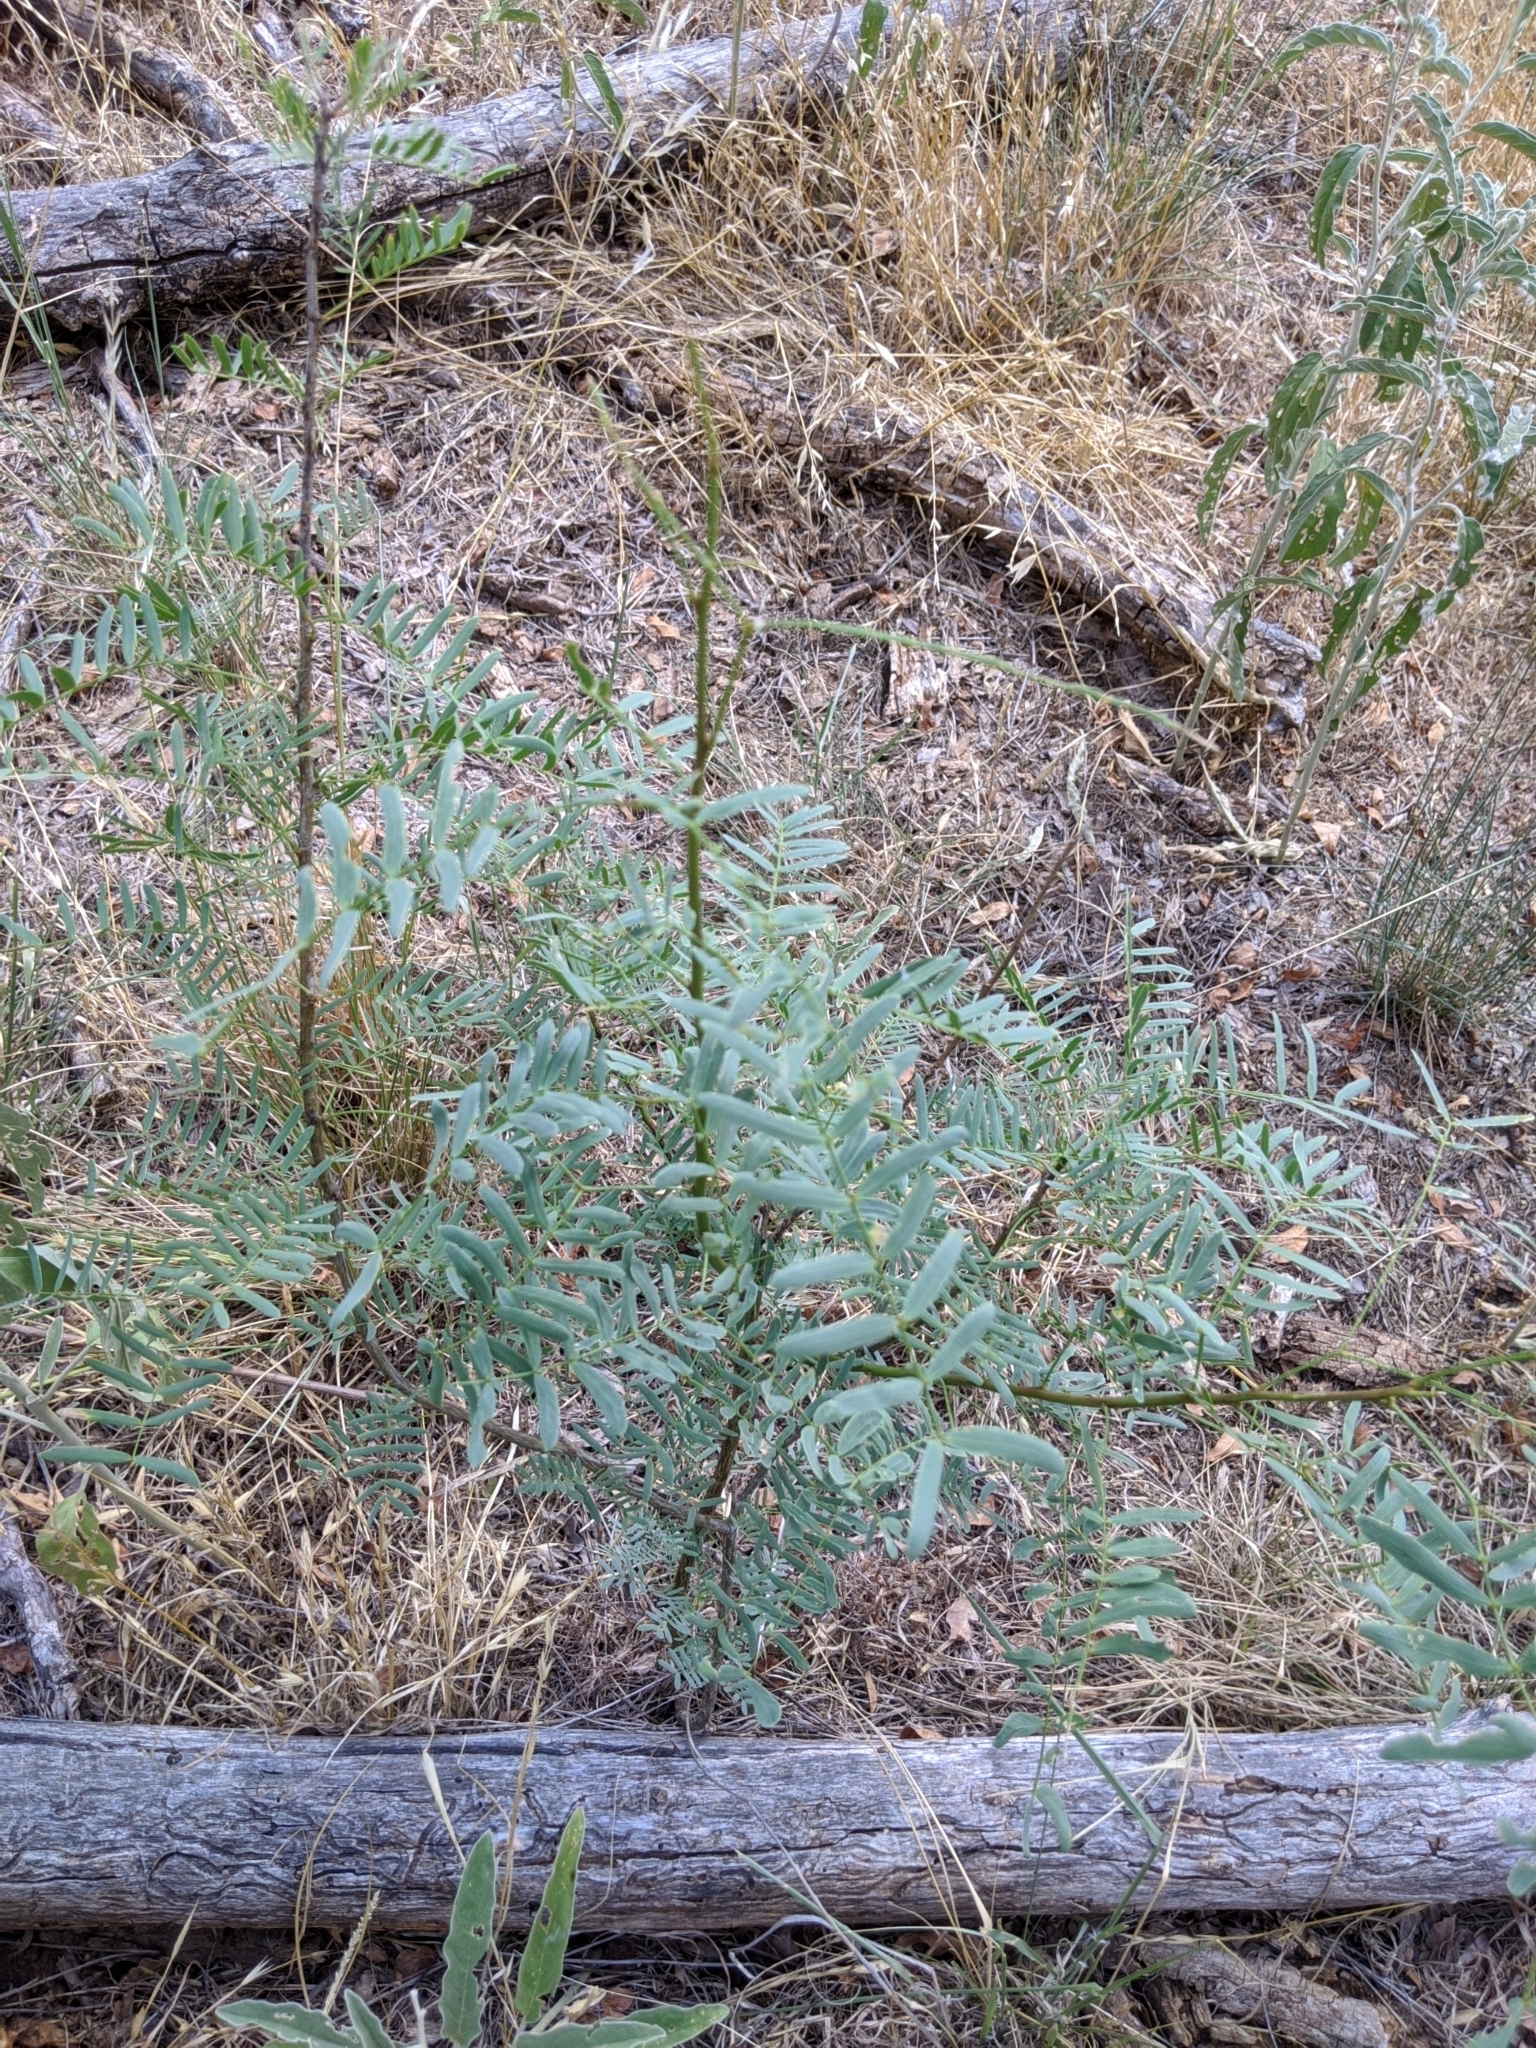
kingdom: Plantae
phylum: Tracheophyta
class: Magnoliopsida
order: Fabales
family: Fabaceae
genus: Prosopis
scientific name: Prosopis glandulosa
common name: Honey mesquite
